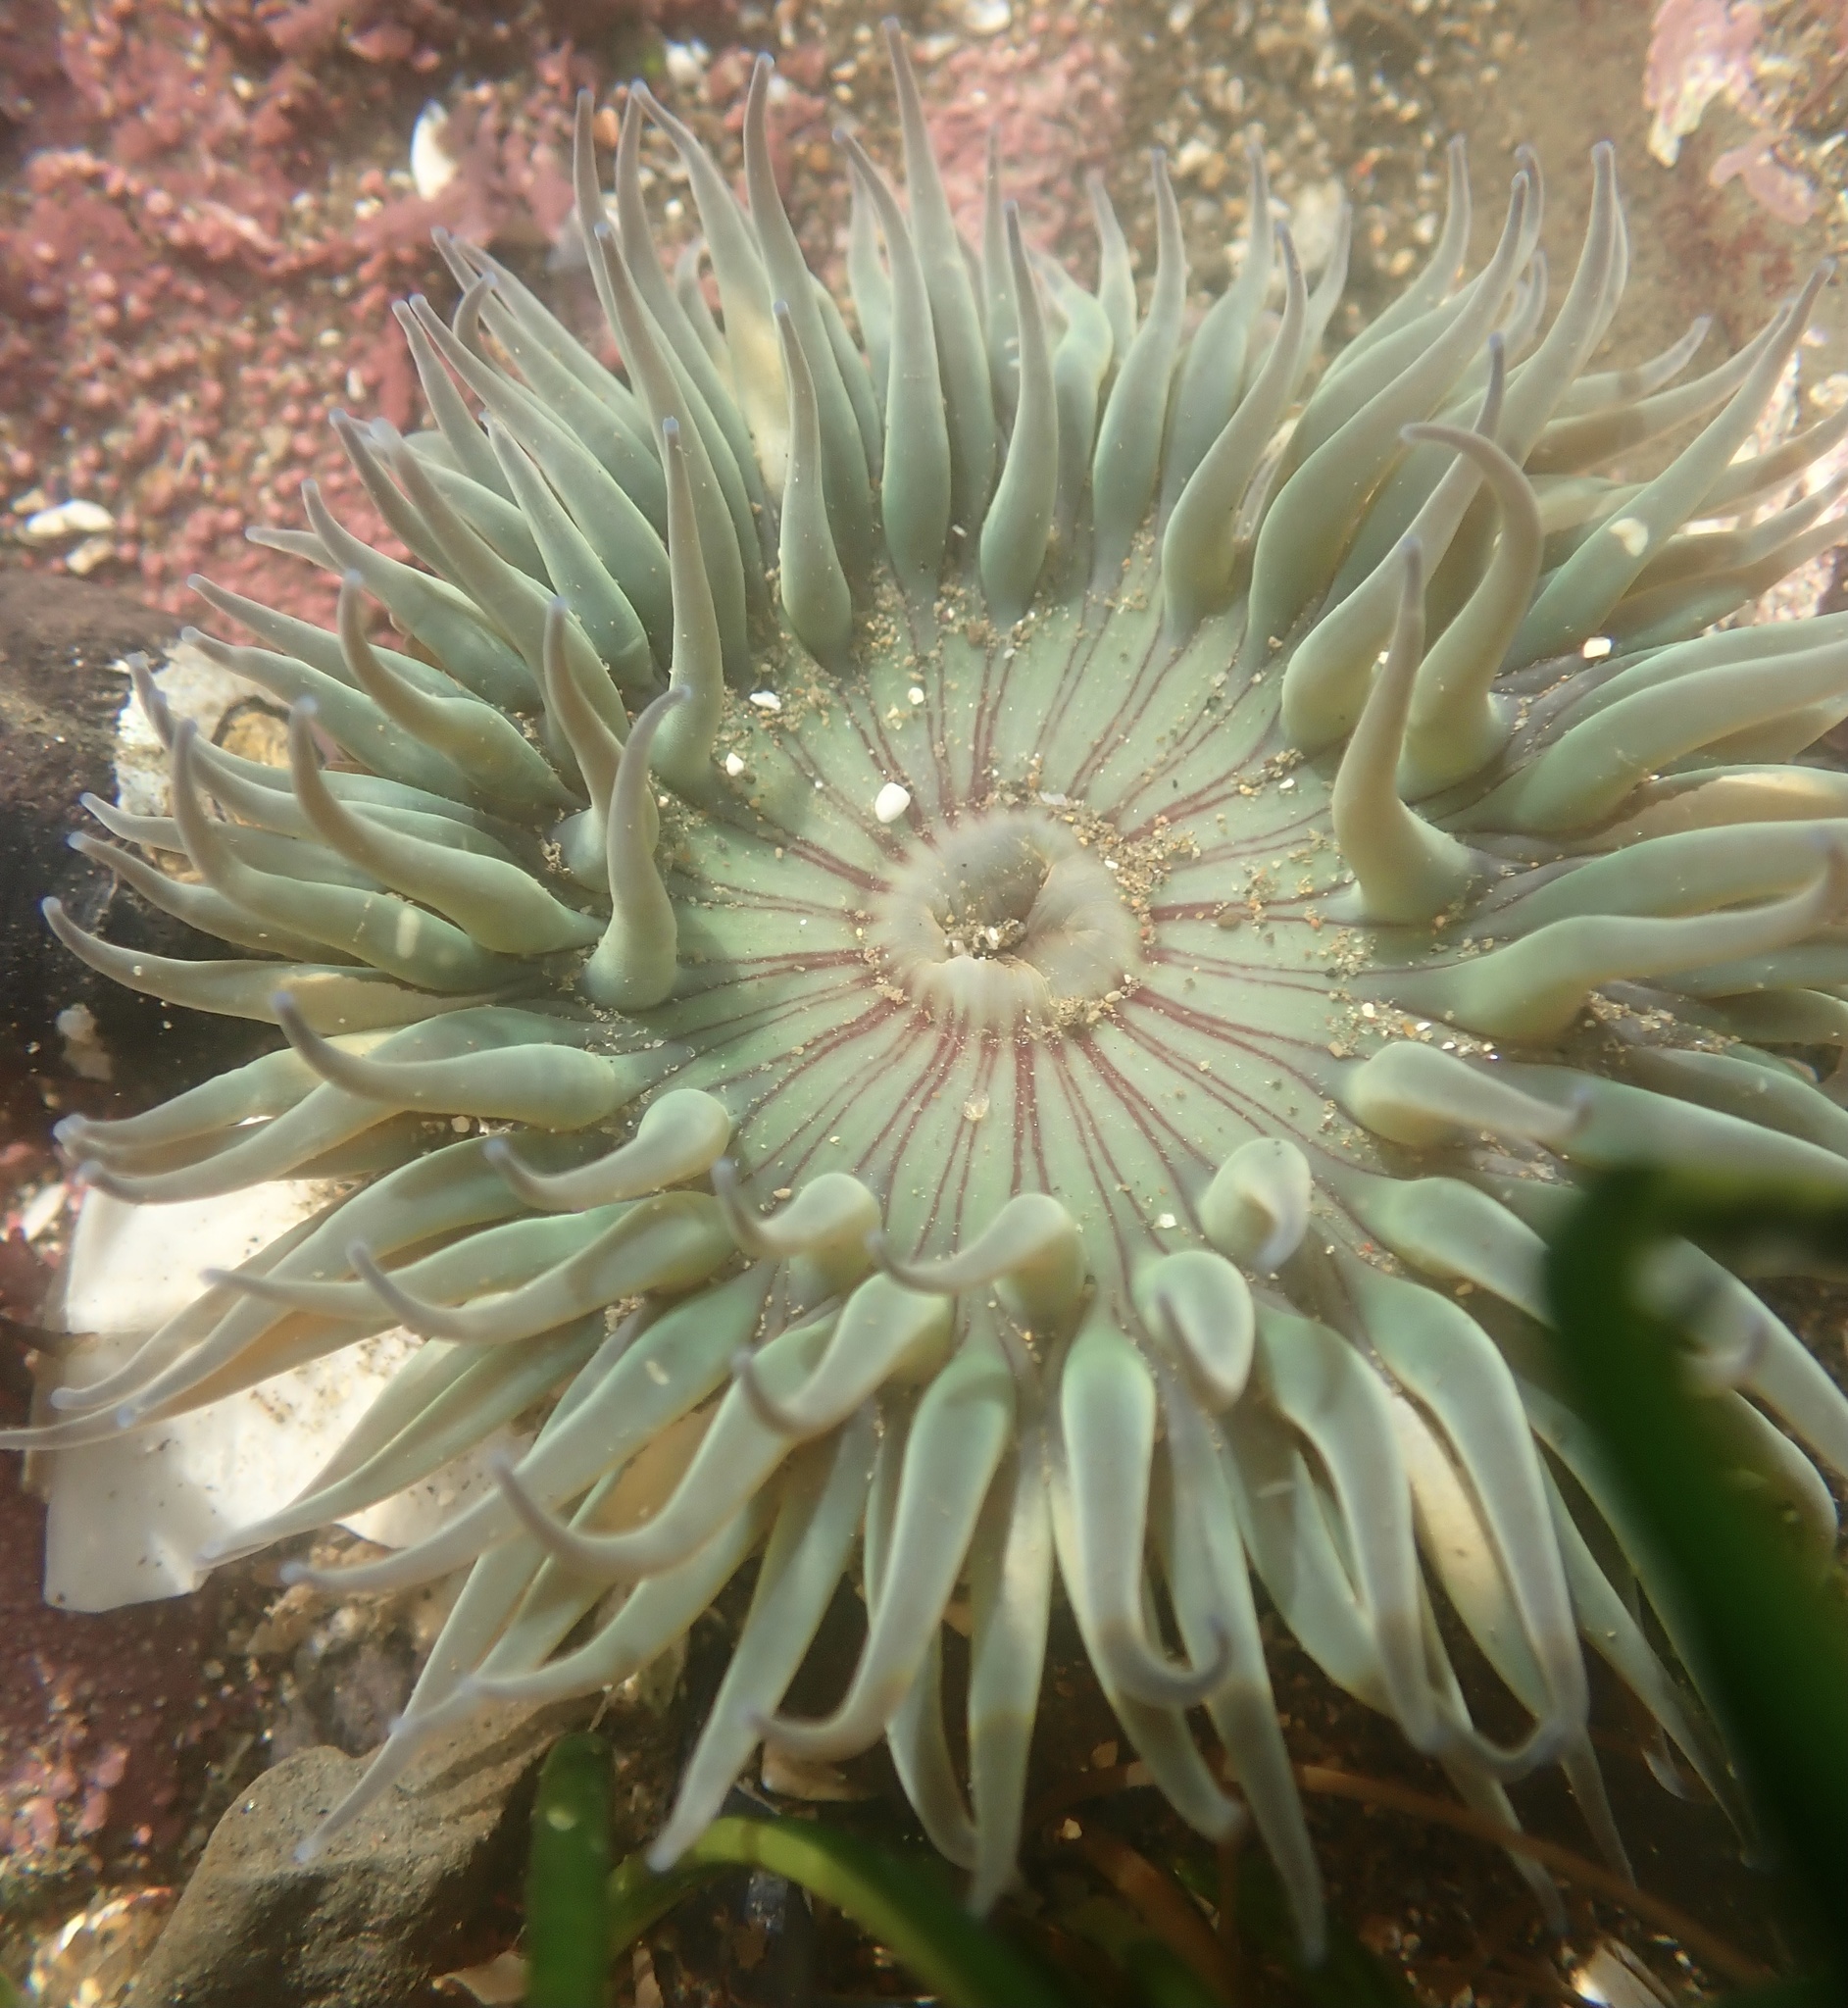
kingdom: Animalia
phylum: Cnidaria
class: Anthozoa
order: Actiniaria
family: Actiniidae
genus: Anthopleura
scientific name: Anthopleura sola
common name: Sun anemone
